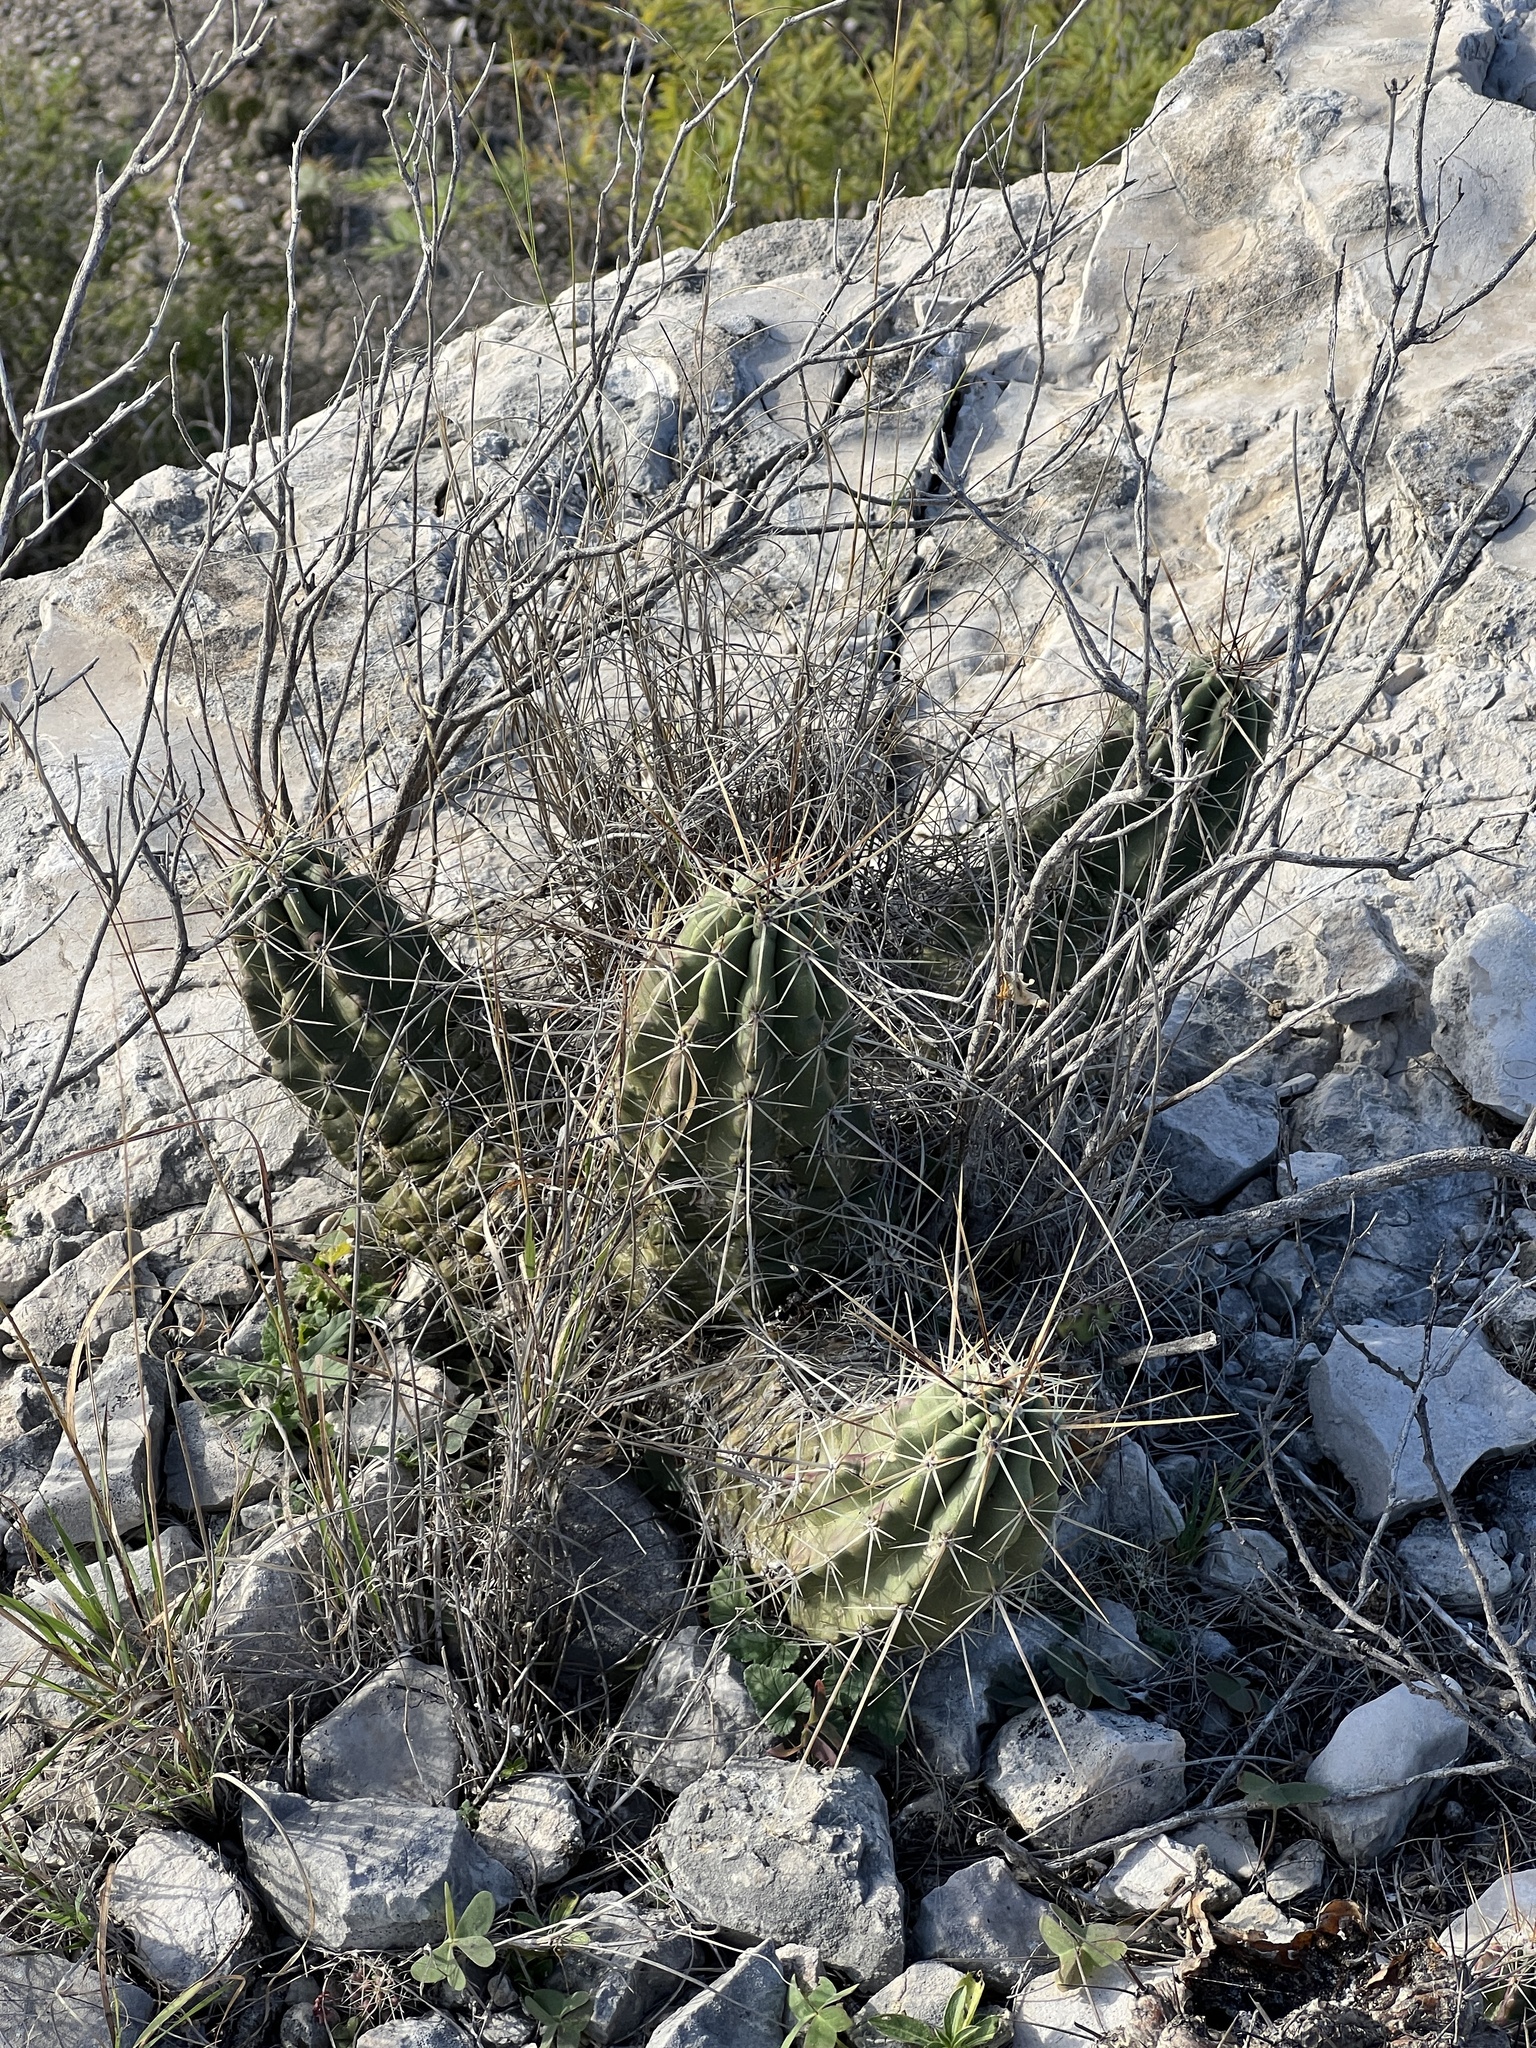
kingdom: Plantae
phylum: Tracheophyta
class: Magnoliopsida
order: Caryophyllales
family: Cactaceae
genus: Echinocereus
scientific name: Echinocereus enneacanthus
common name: Pitaya
